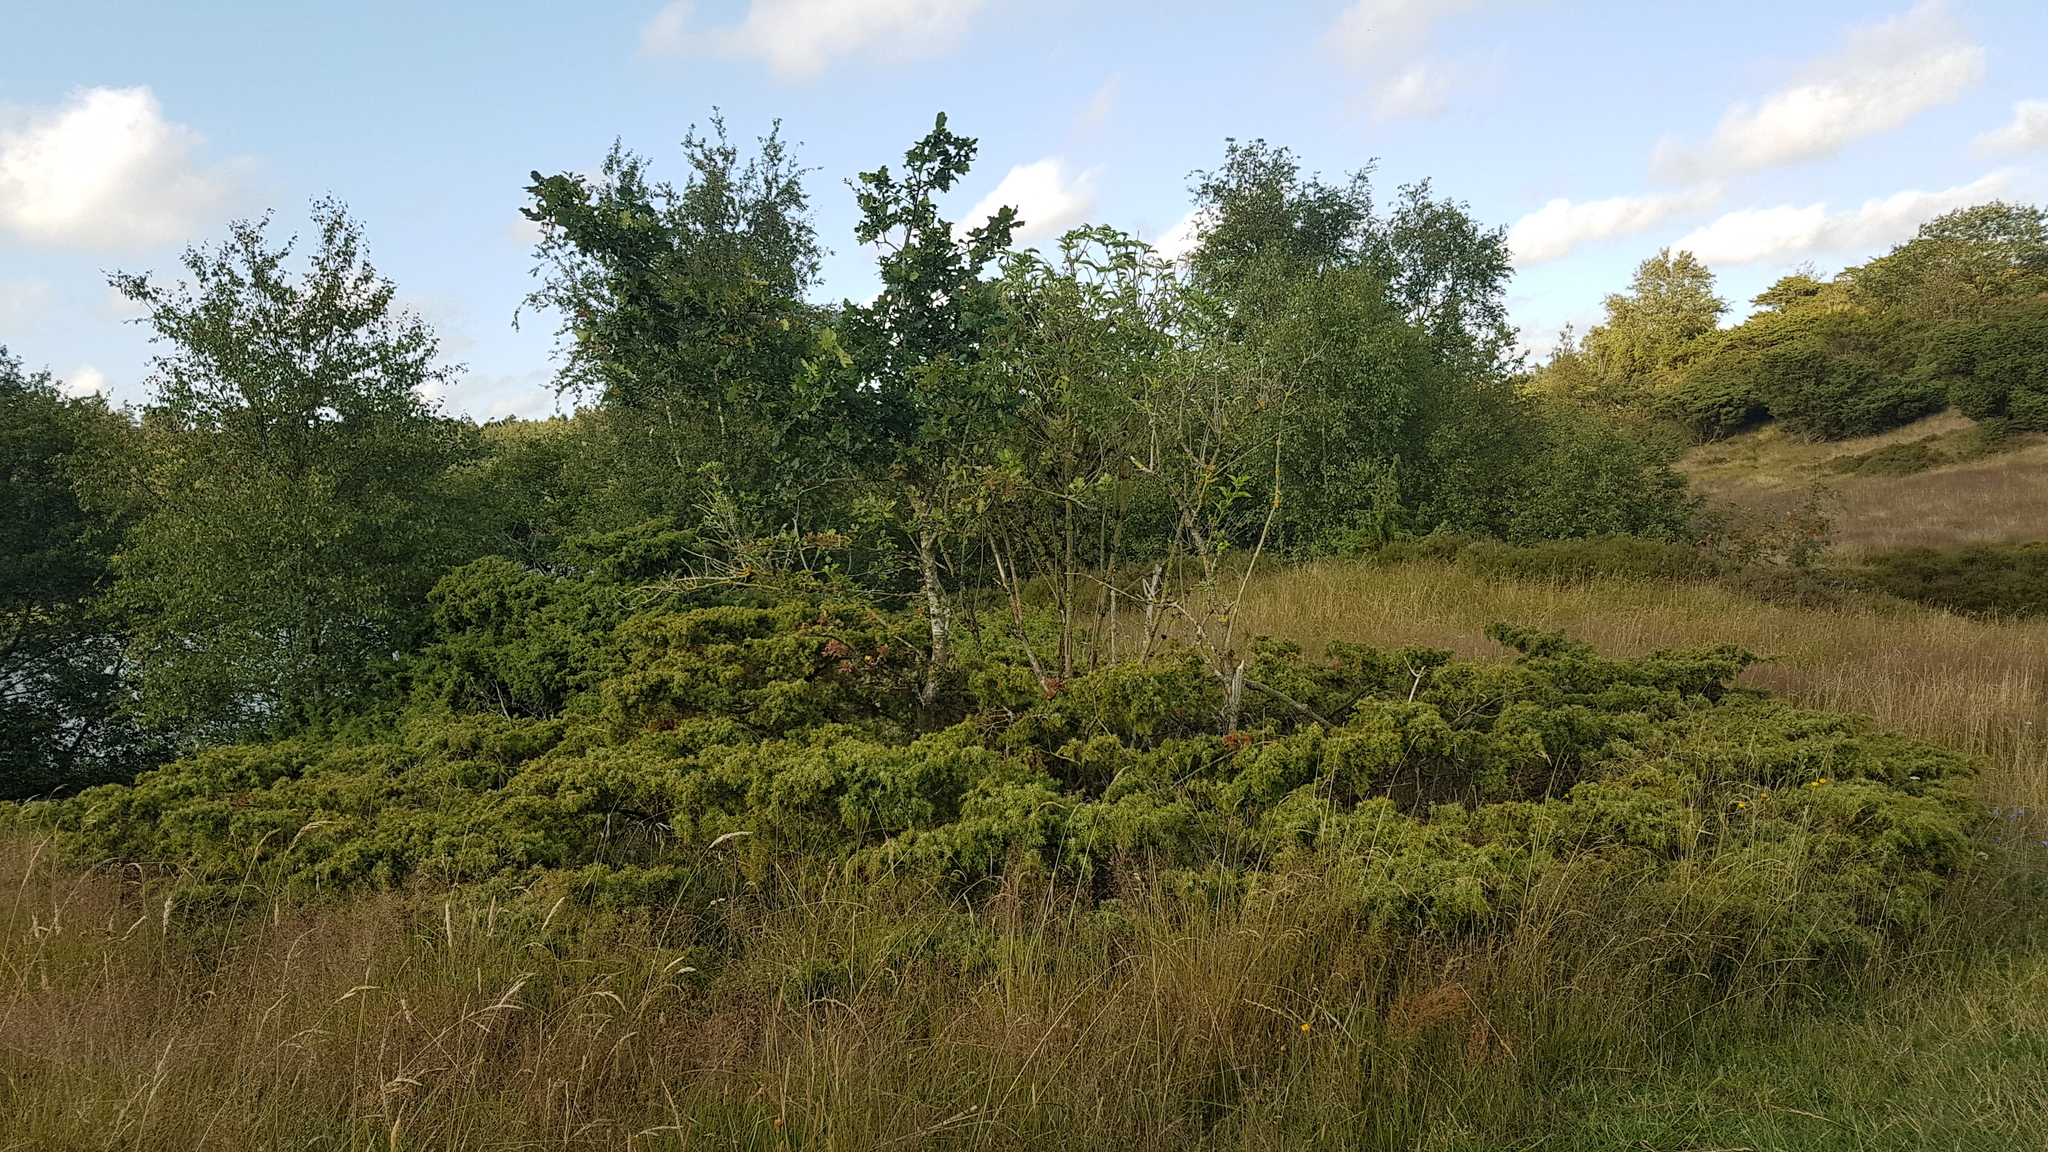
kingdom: Plantae
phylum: Tracheophyta
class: Pinopsida
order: Pinales
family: Cupressaceae
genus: Juniperus
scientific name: Juniperus communis
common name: Common juniper
